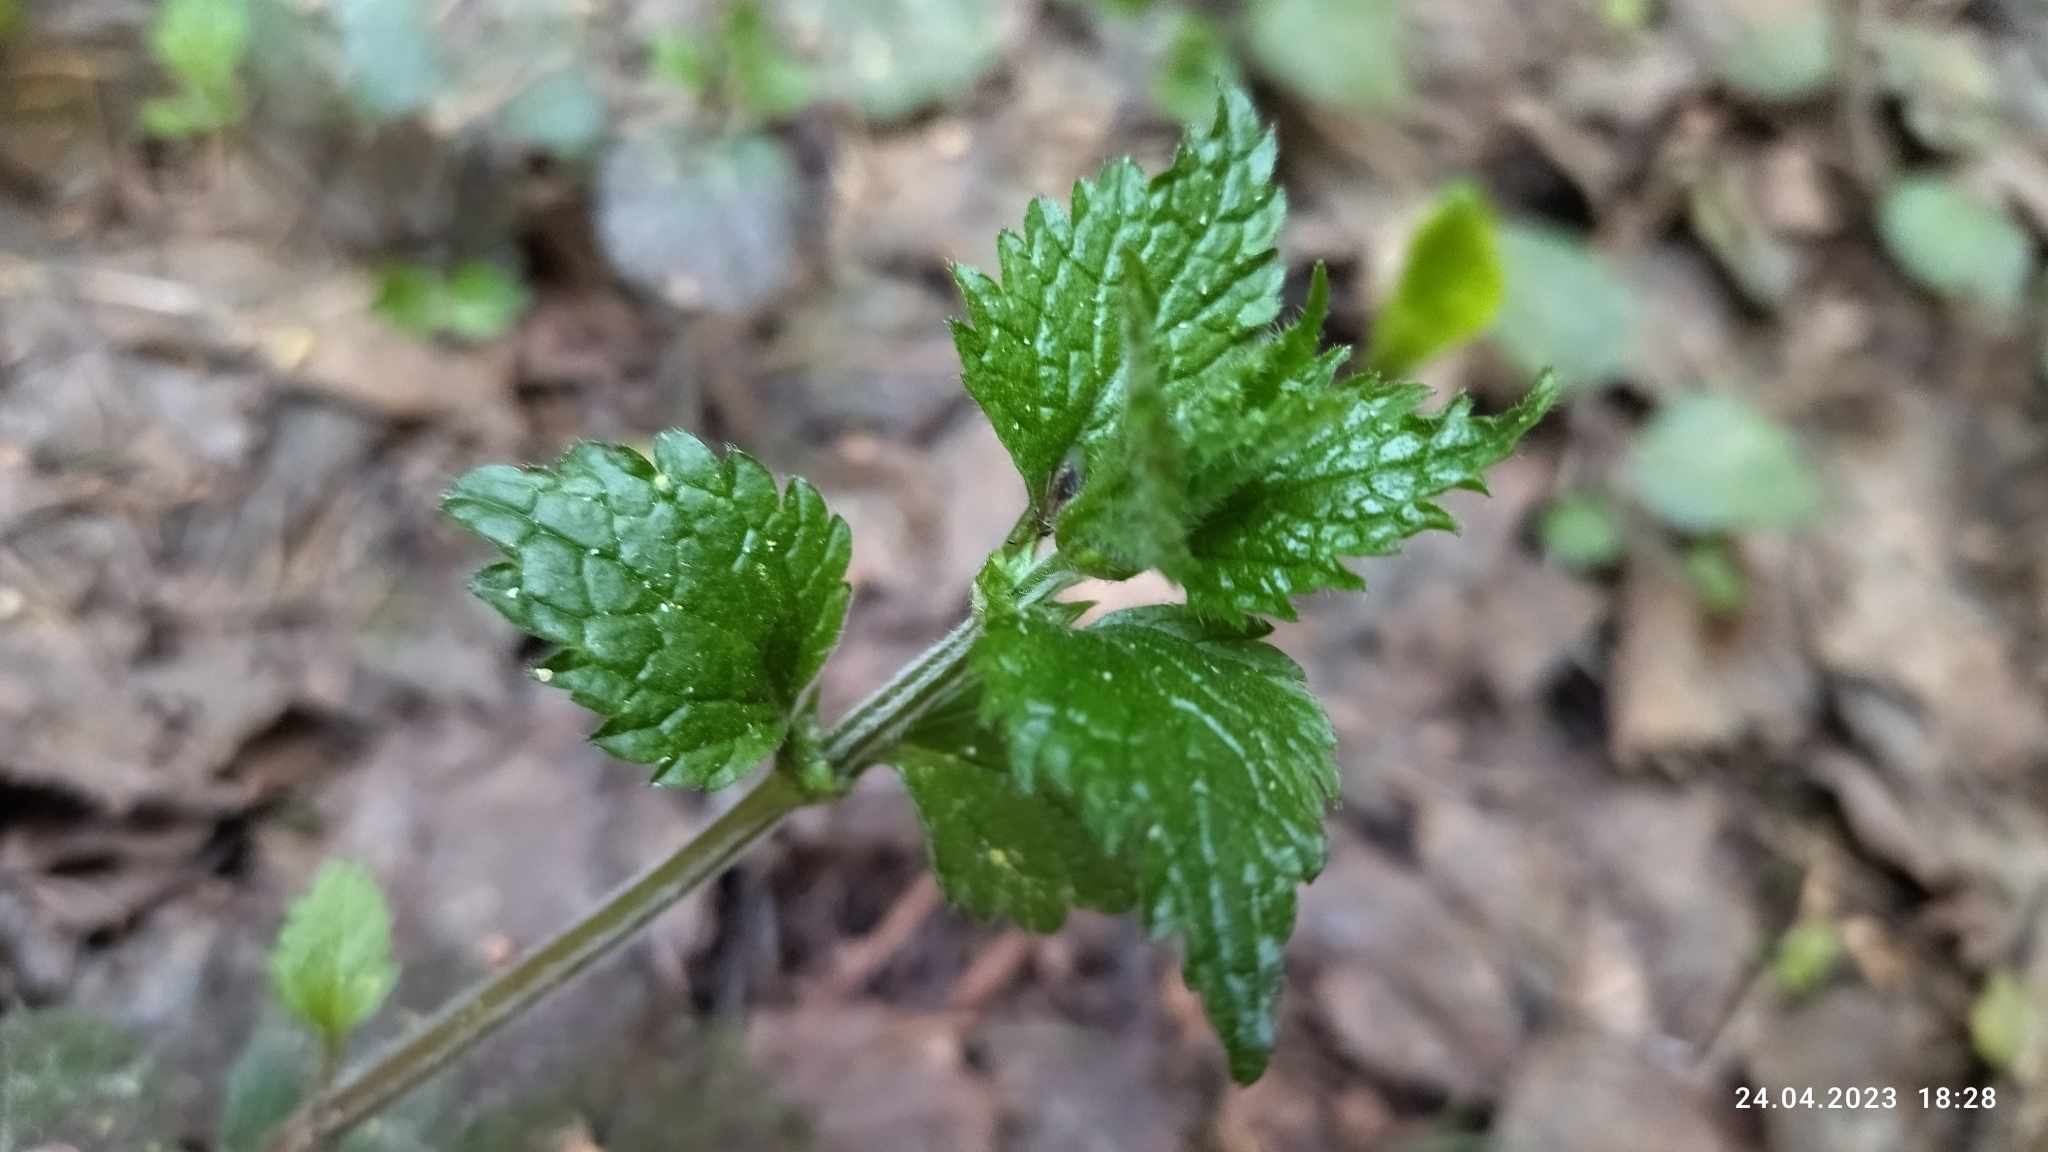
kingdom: Plantae
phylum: Tracheophyta
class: Magnoliopsida
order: Lamiales
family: Lamiaceae
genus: Lamium
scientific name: Lamium galeobdolon
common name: Yellow archangel
